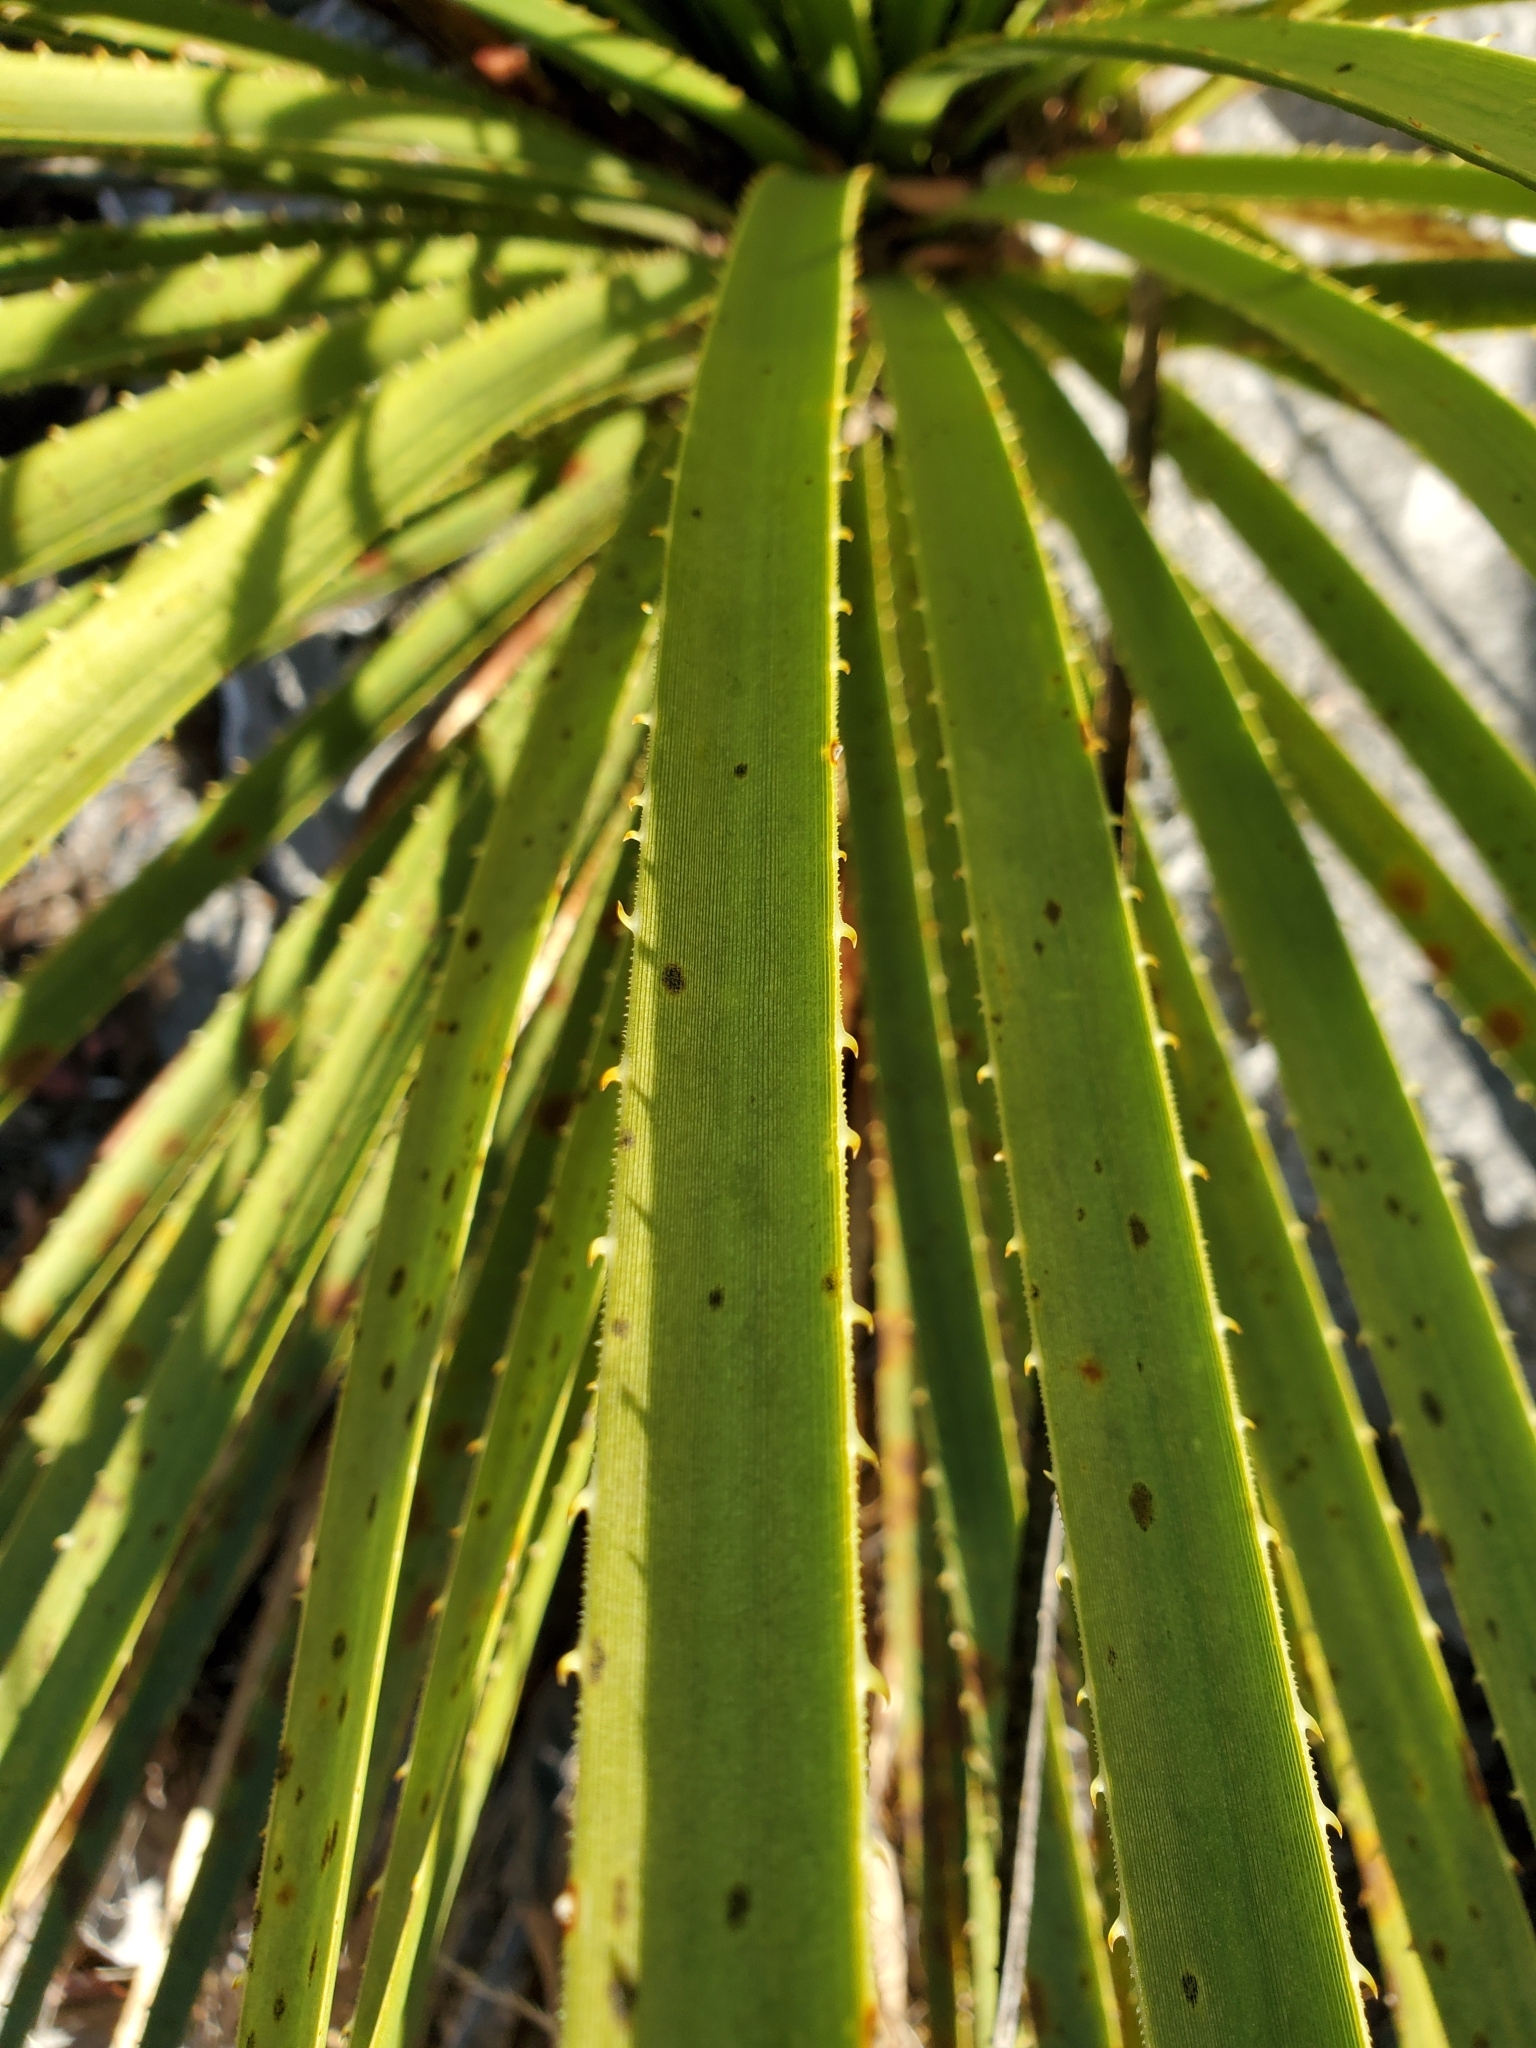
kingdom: Plantae
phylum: Tracheophyta
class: Liliopsida
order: Asparagales
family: Asparagaceae
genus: Dasylirion
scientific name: Dasylirion texanum
